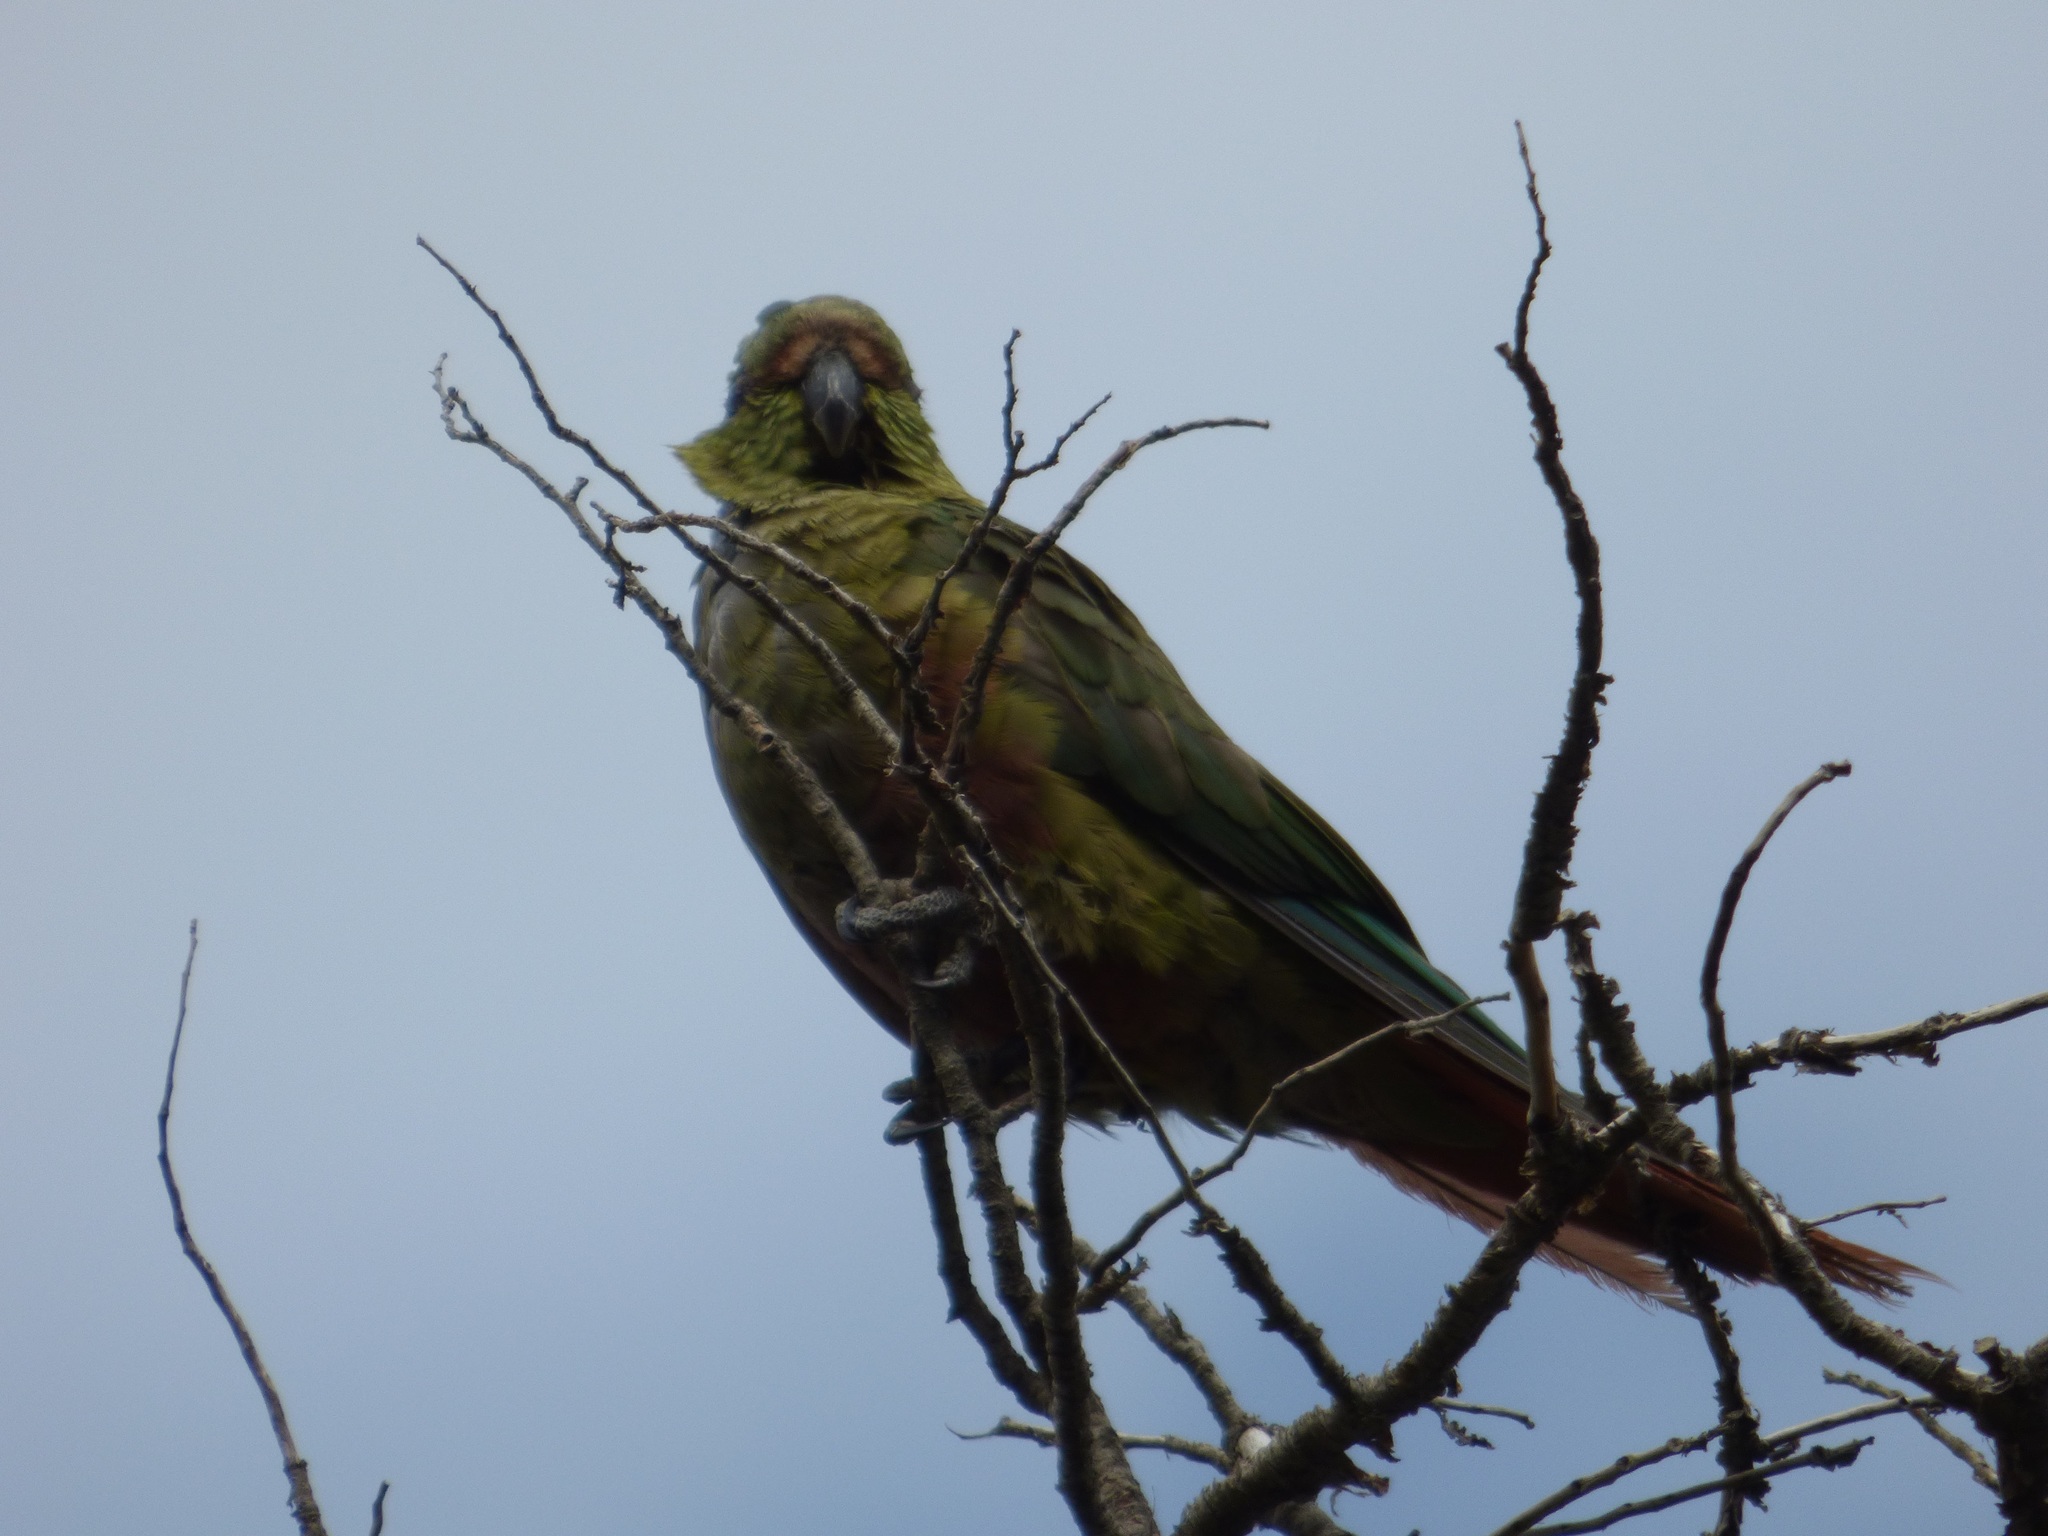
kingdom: Animalia
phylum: Chordata
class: Aves
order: Psittaciformes
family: Psittacidae
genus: Enicognathus
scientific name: Enicognathus ferrugineus
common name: Austral parakeet
